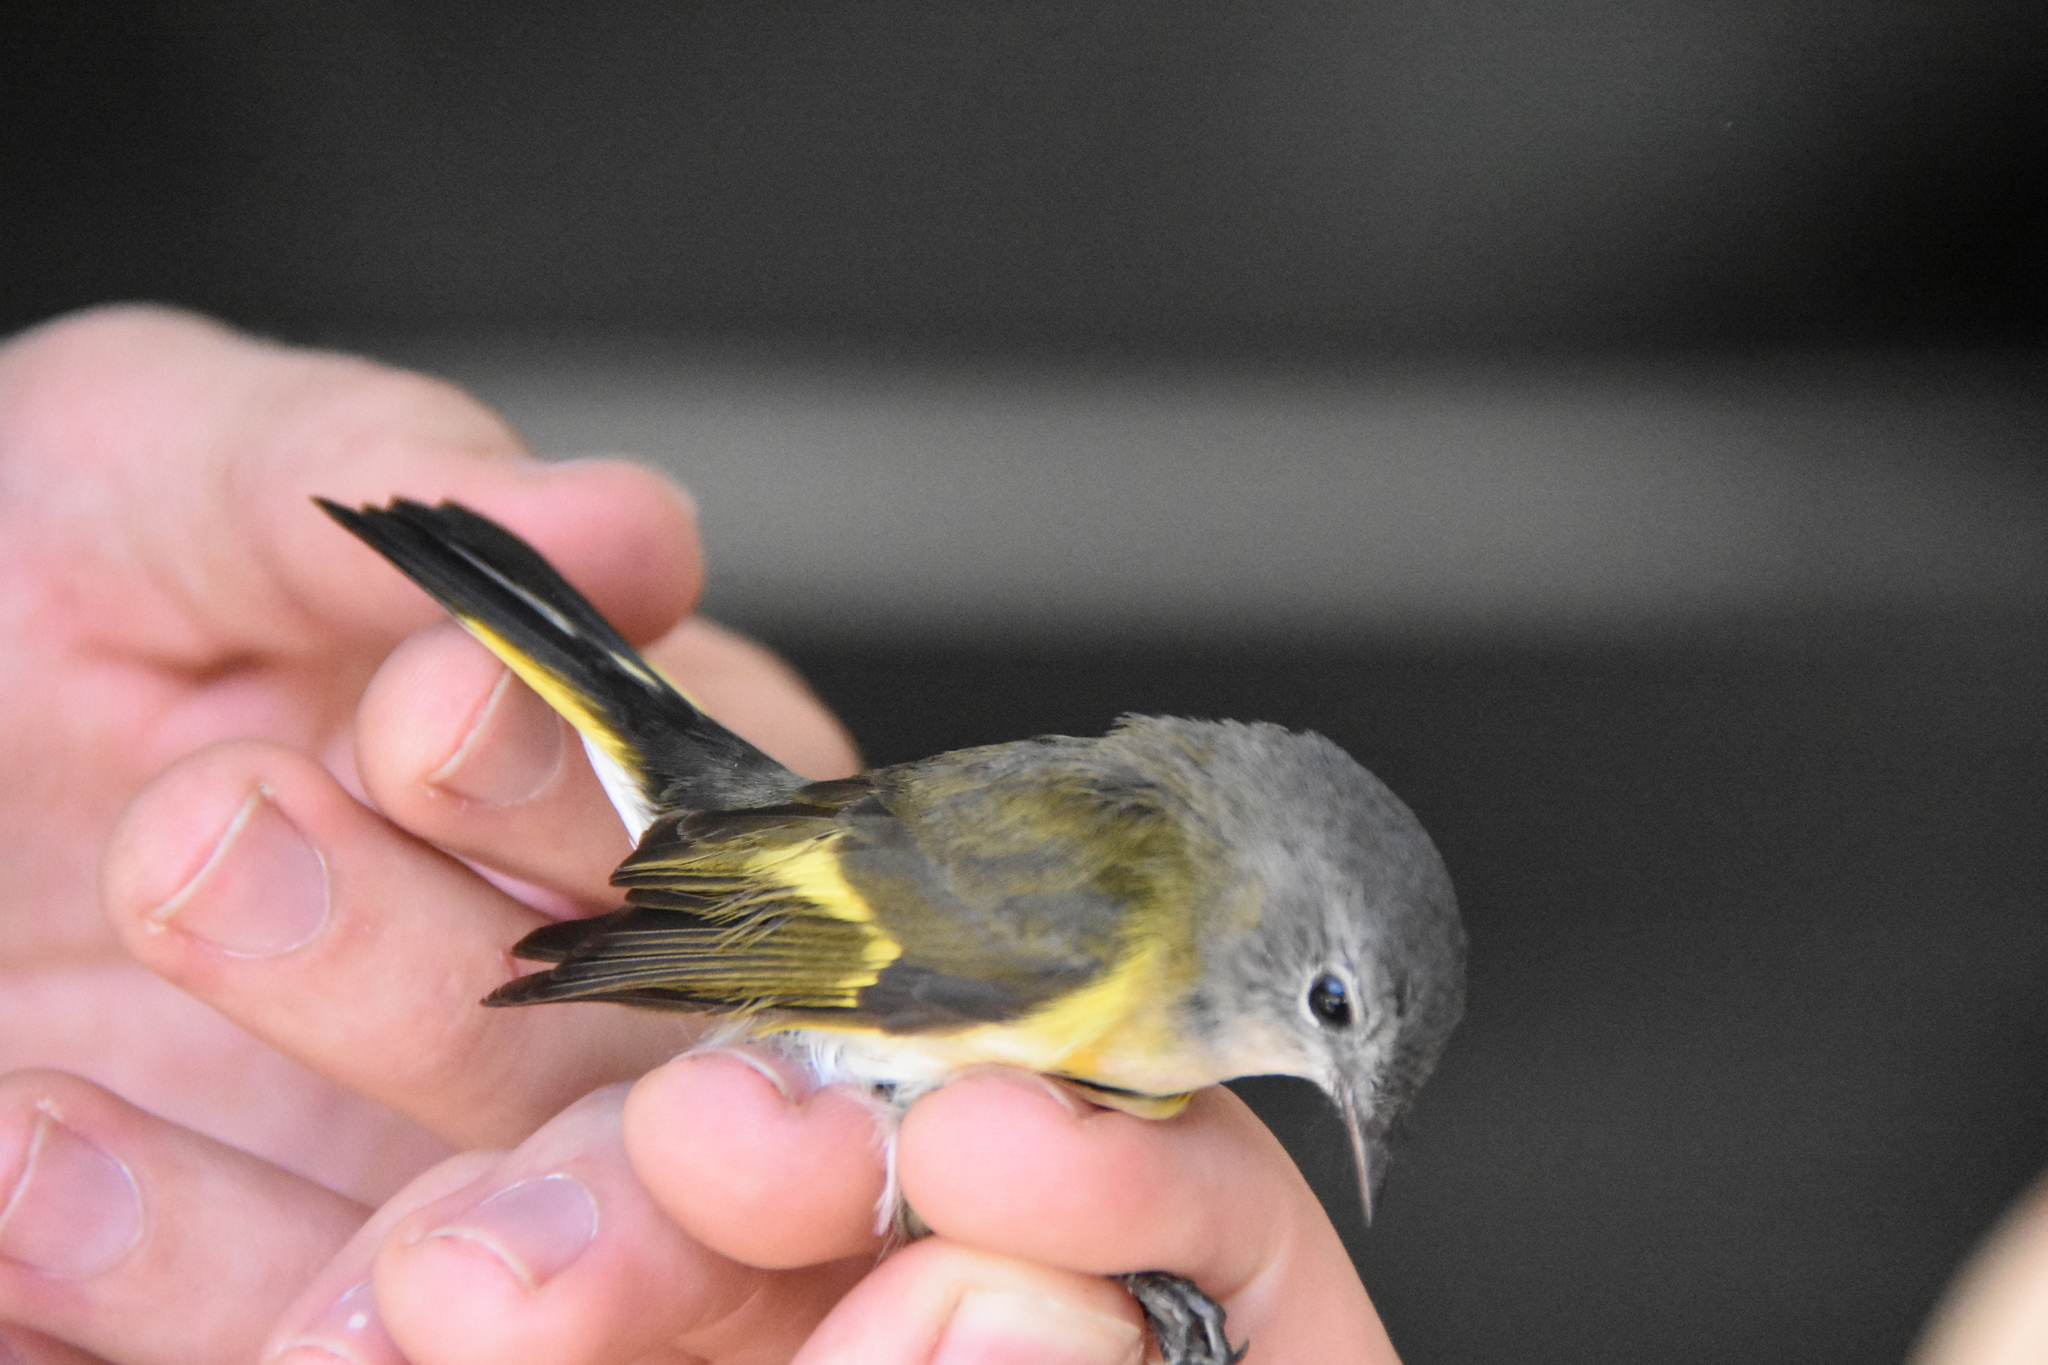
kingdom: Animalia
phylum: Chordata
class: Aves
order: Passeriformes
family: Parulidae
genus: Setophaga
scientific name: Setophaga ruticilla
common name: American redstart
